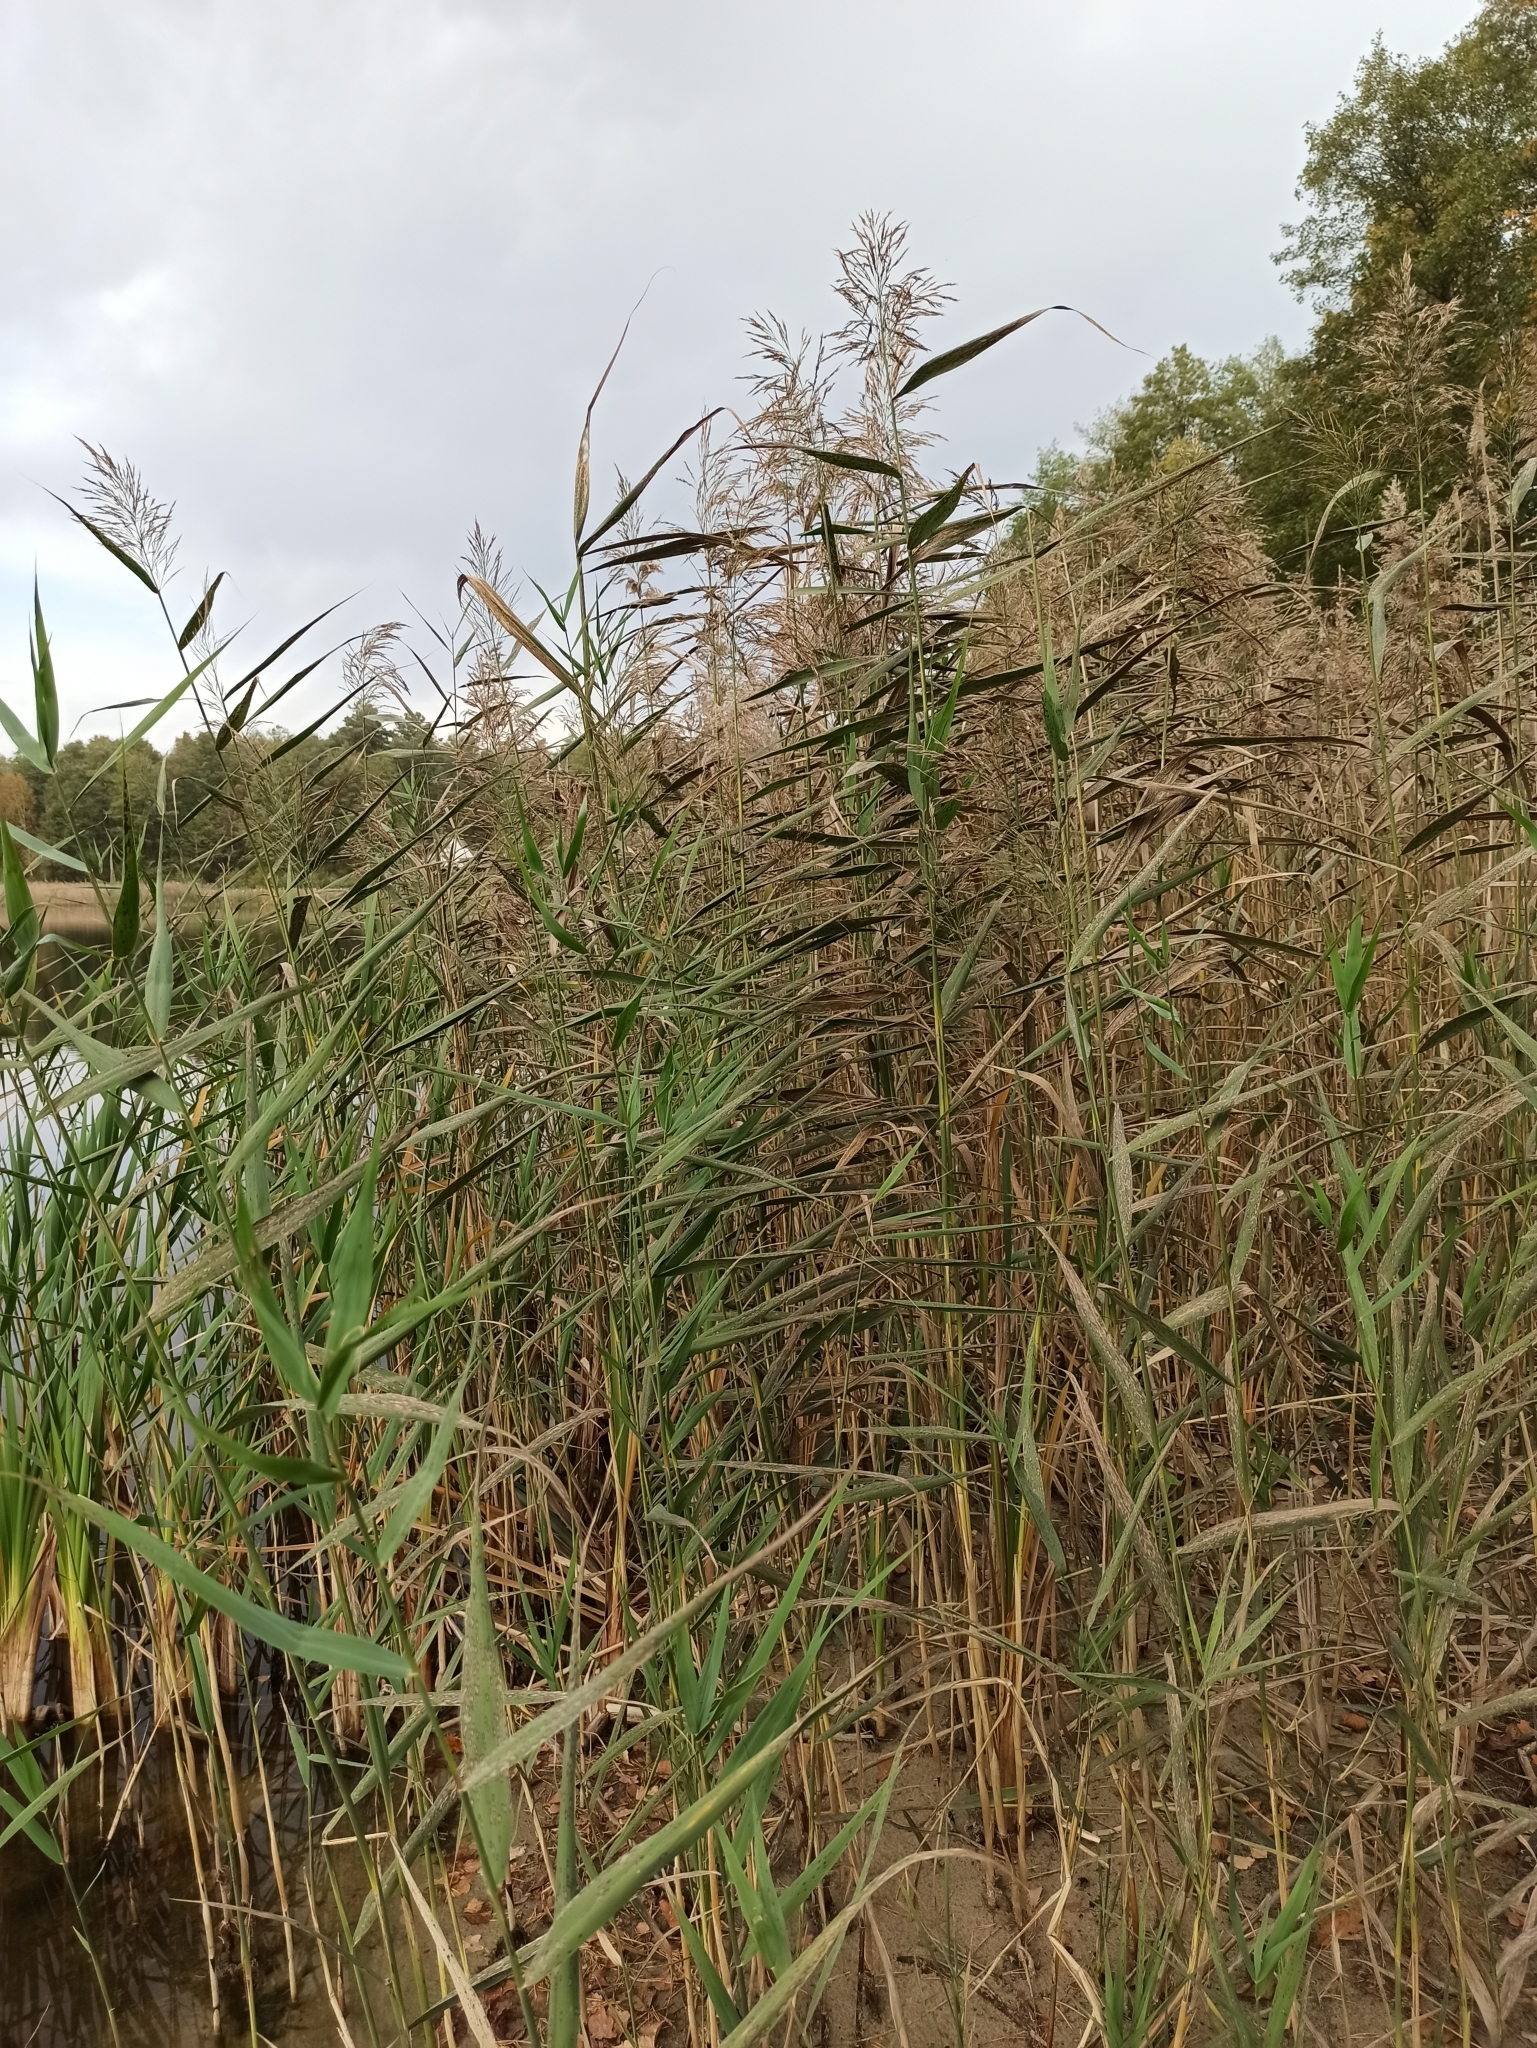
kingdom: Plantae
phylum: Tracheophyta
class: Liliopsida
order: Poales
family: Poaceae
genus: Phragmites
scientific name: Phragmites australis
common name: Common reed
